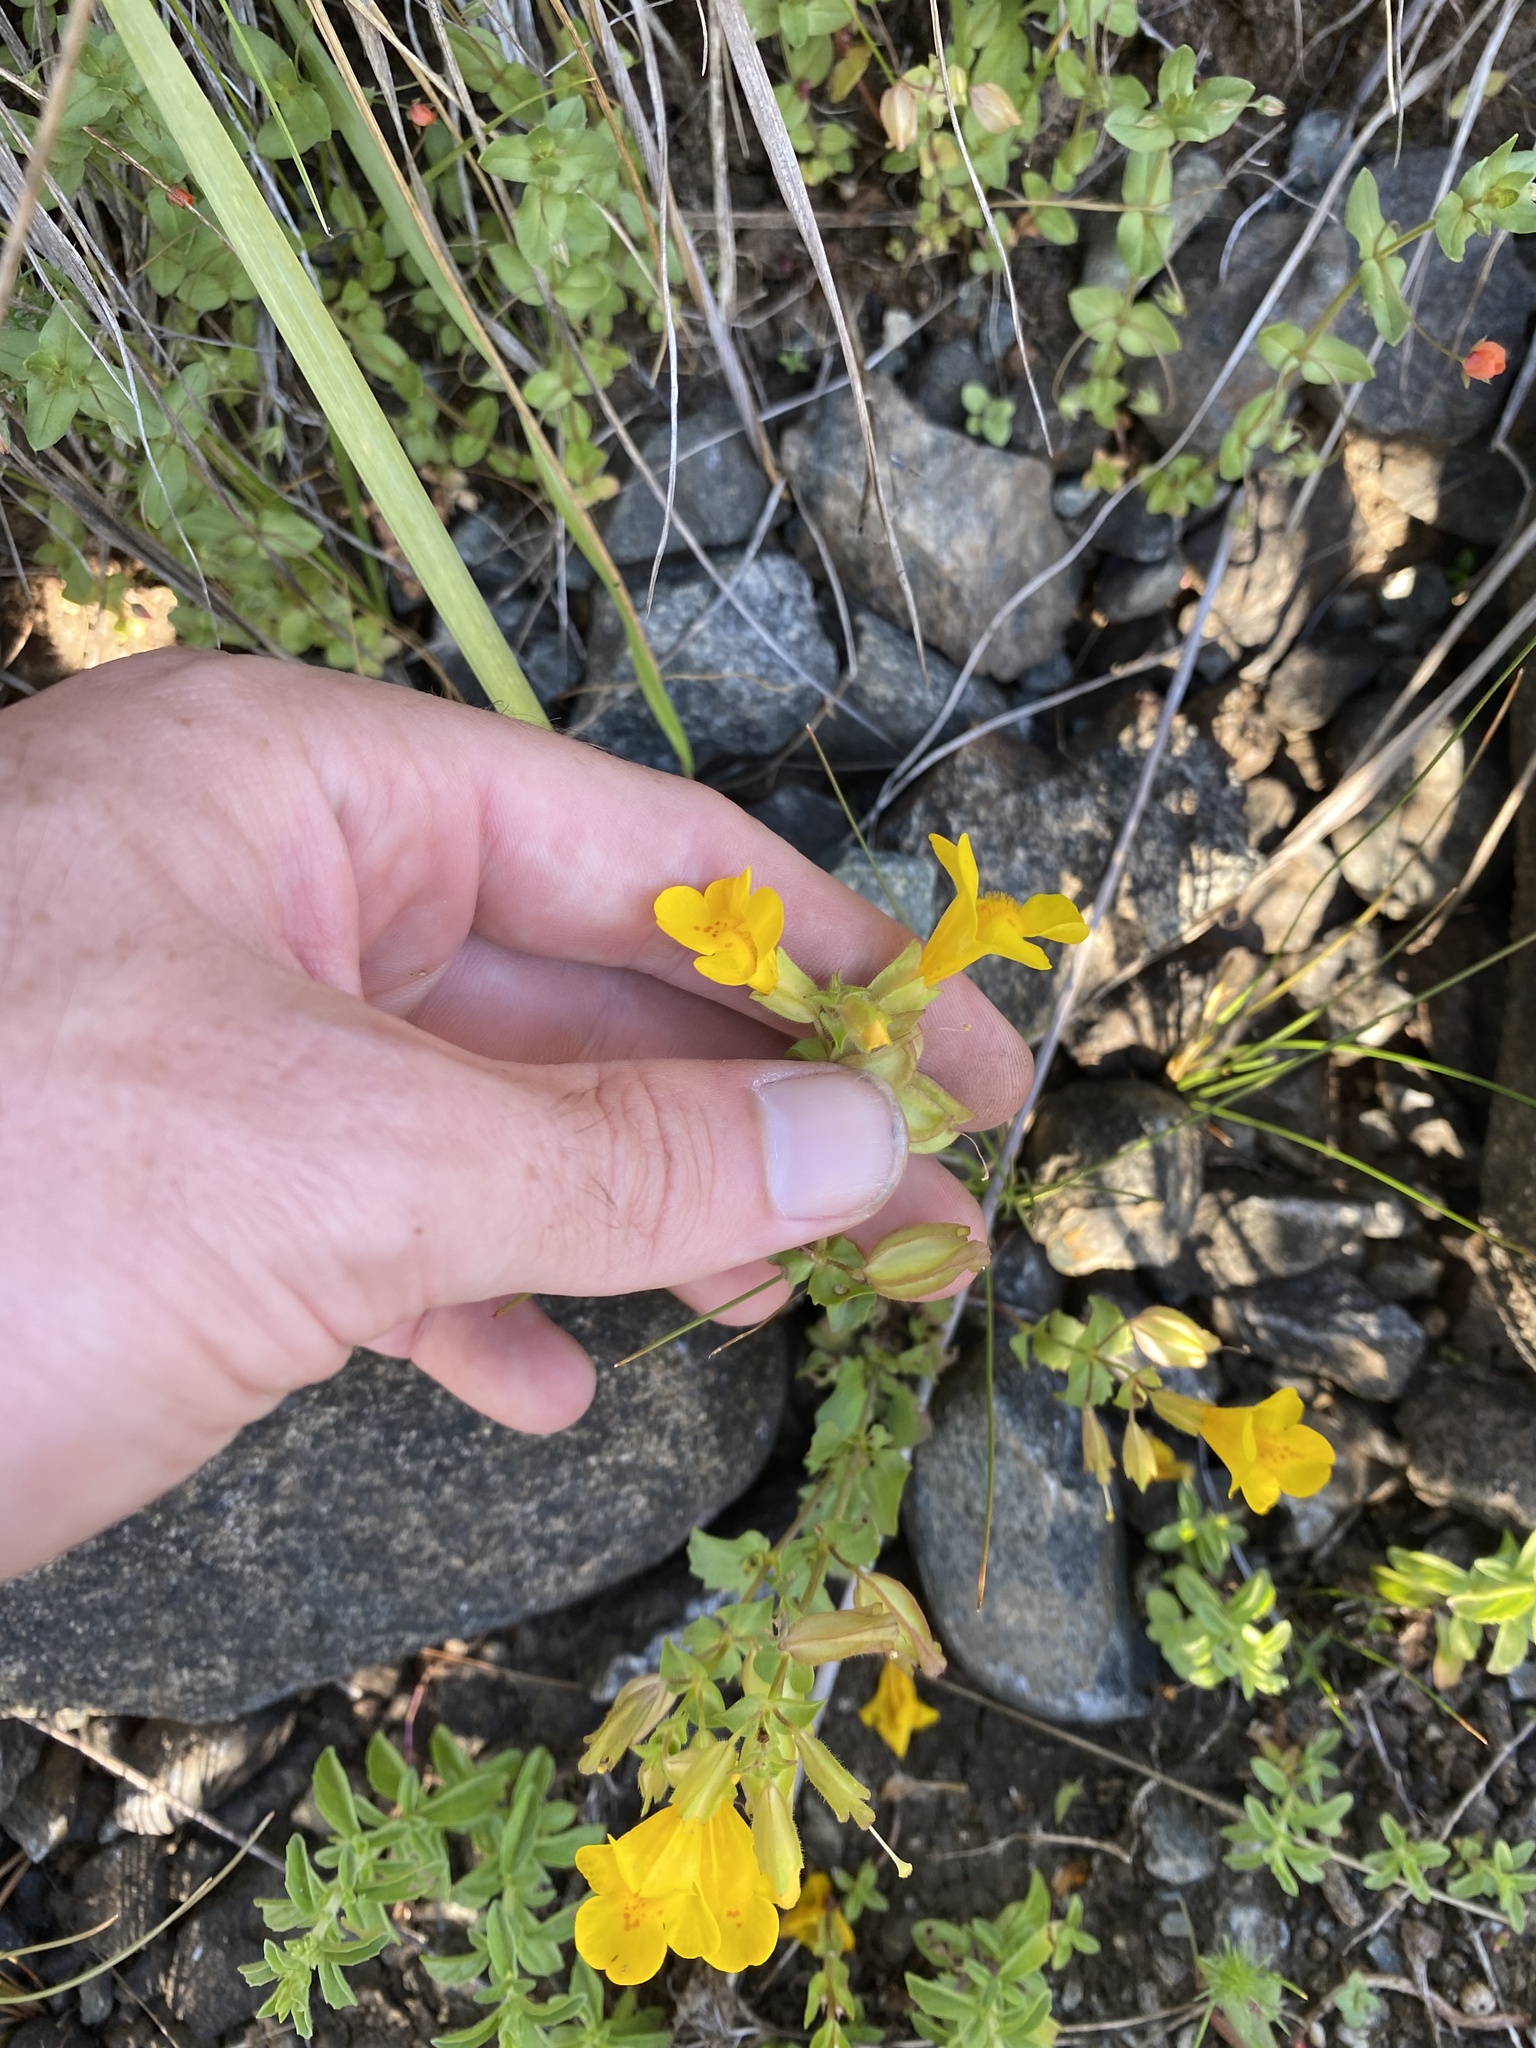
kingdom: Plantae
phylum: Tracheophyta
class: Magnoliopsida
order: Lamiales
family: Phrymaceae
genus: Erythranthe
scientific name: Erythranthe microphylla
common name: Bentham's monkeyflower
